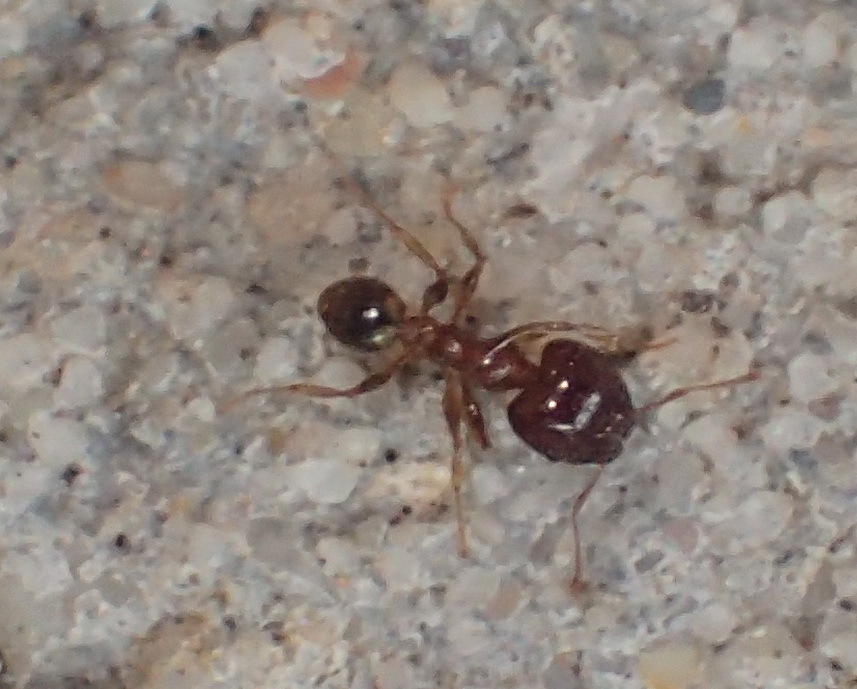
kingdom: Animalia
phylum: Arthropoda
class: Insecta
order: Hymenoptera
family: Formicidae
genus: Pheidole
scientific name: Pheidole megacephala
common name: Bigheaded ant
